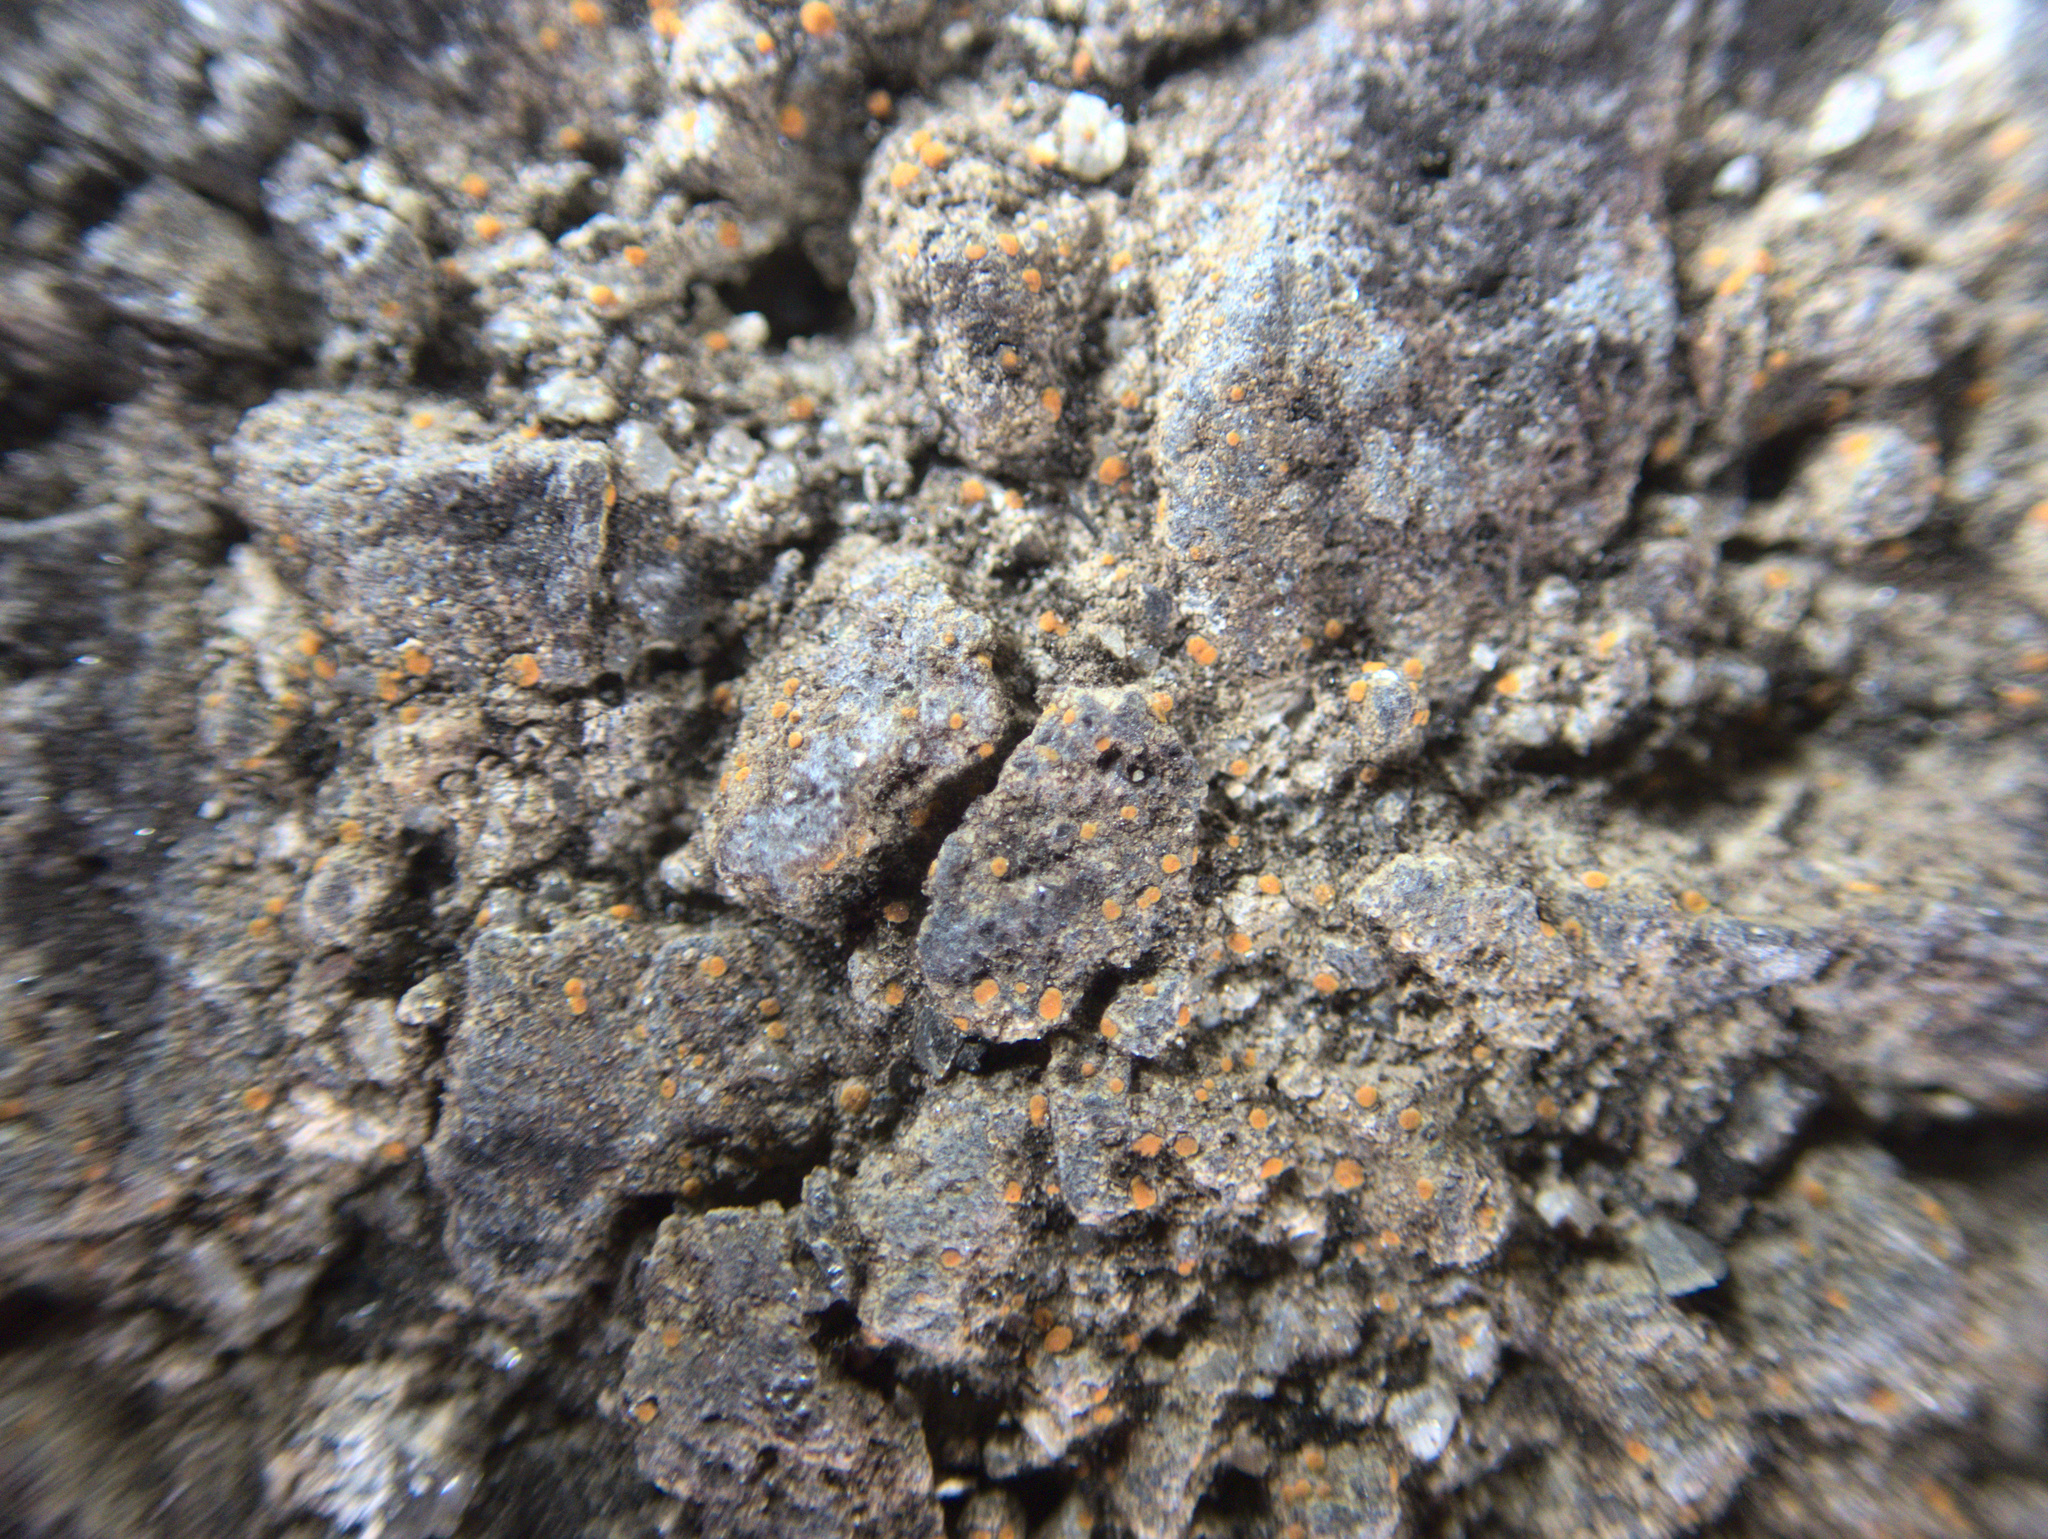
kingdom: Fungi
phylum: Ascomycota
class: Lecanoromycetes
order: Lecanorales
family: Psoraceae
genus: Protoblastenia
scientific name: Protoblastenia rupestris
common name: Chewing gum lichen
